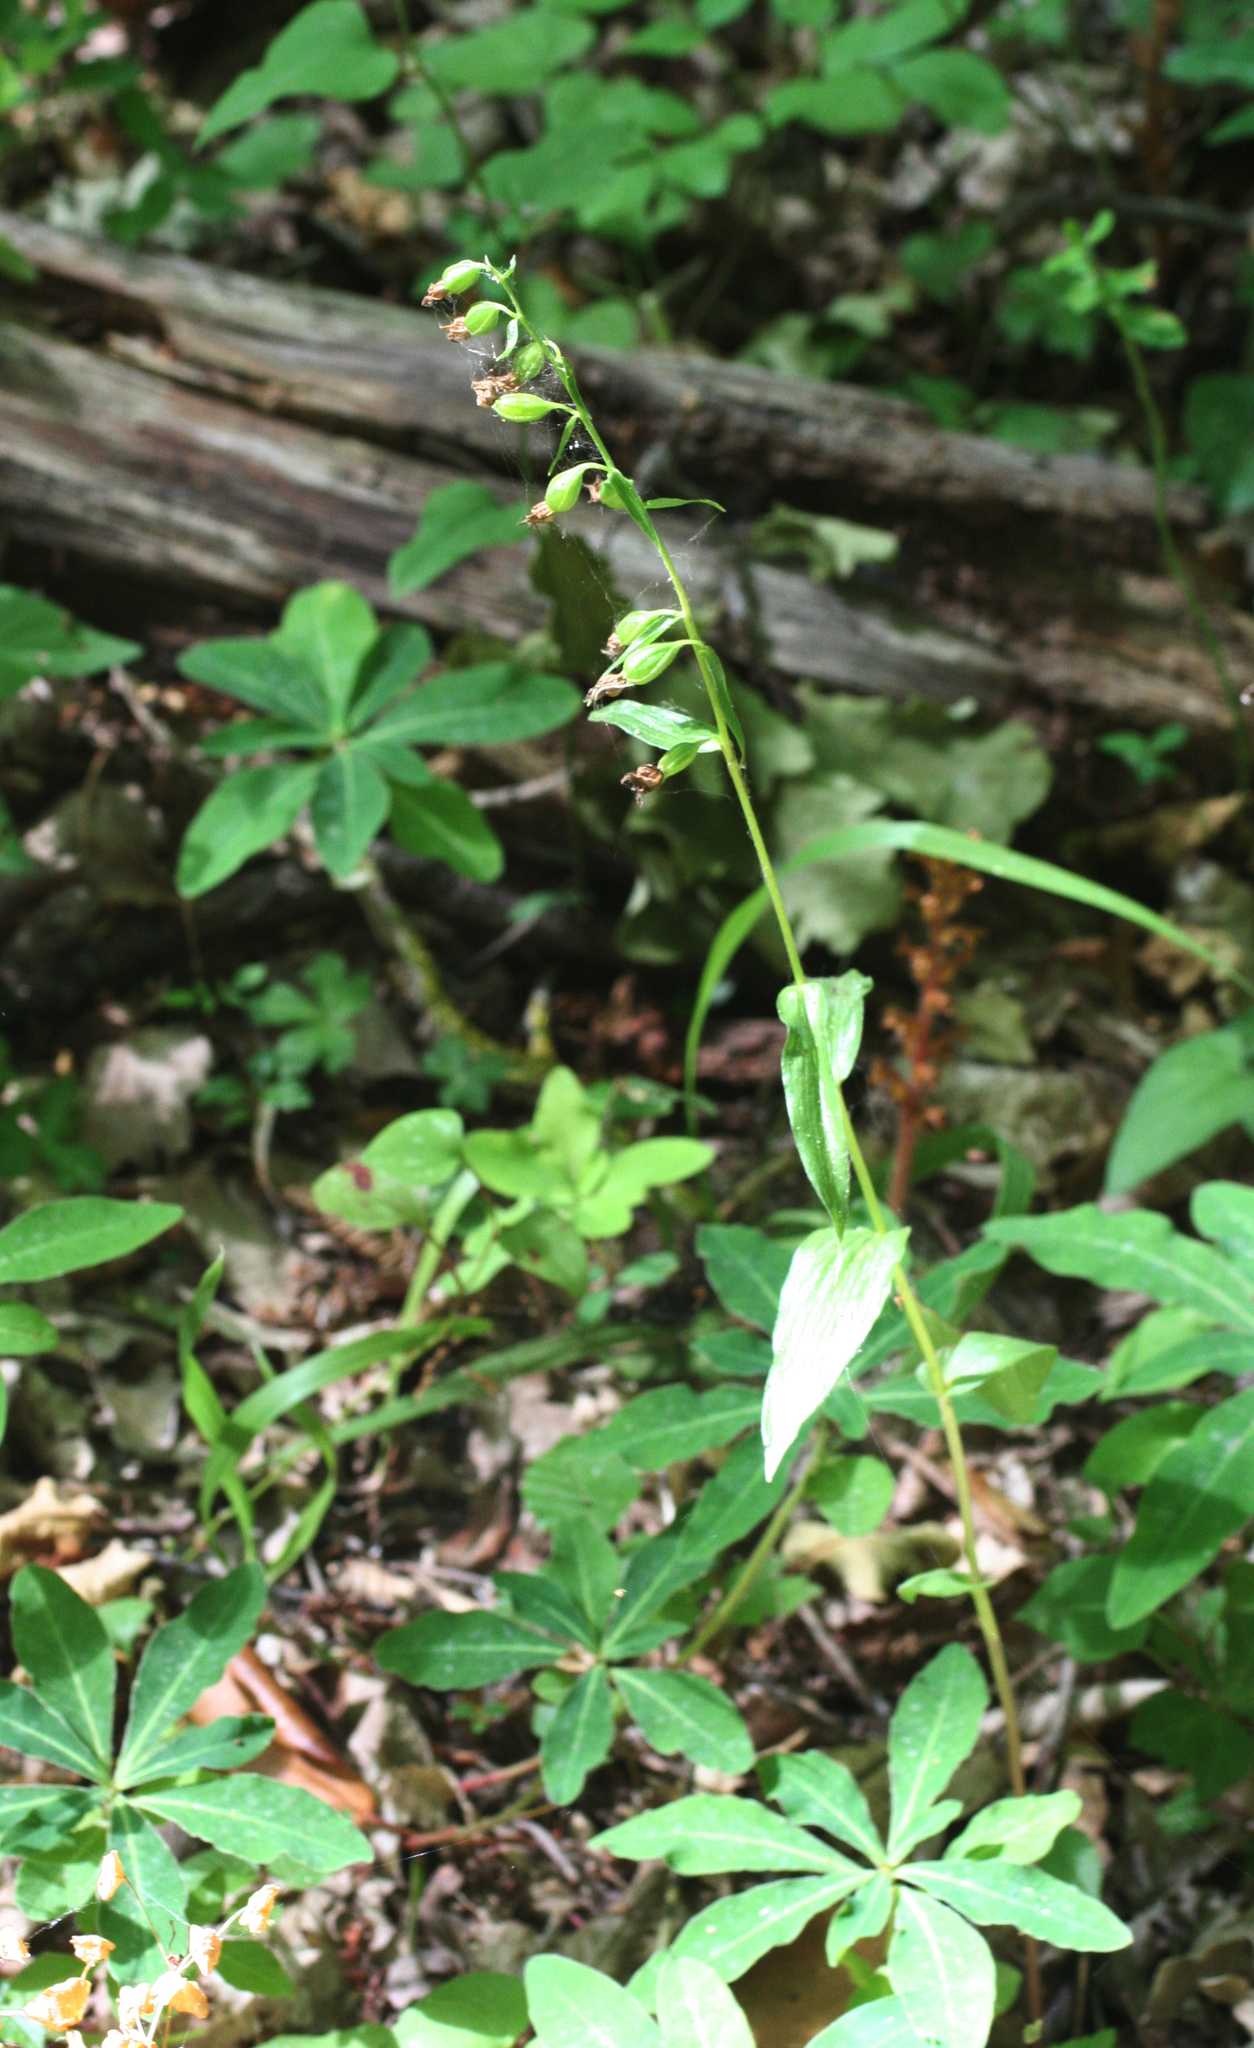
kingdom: Plantae
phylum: Tracheophyta
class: Liliopsida
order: Asparagales
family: Orchidaceae
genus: Epipactis
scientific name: Epipactis persica
